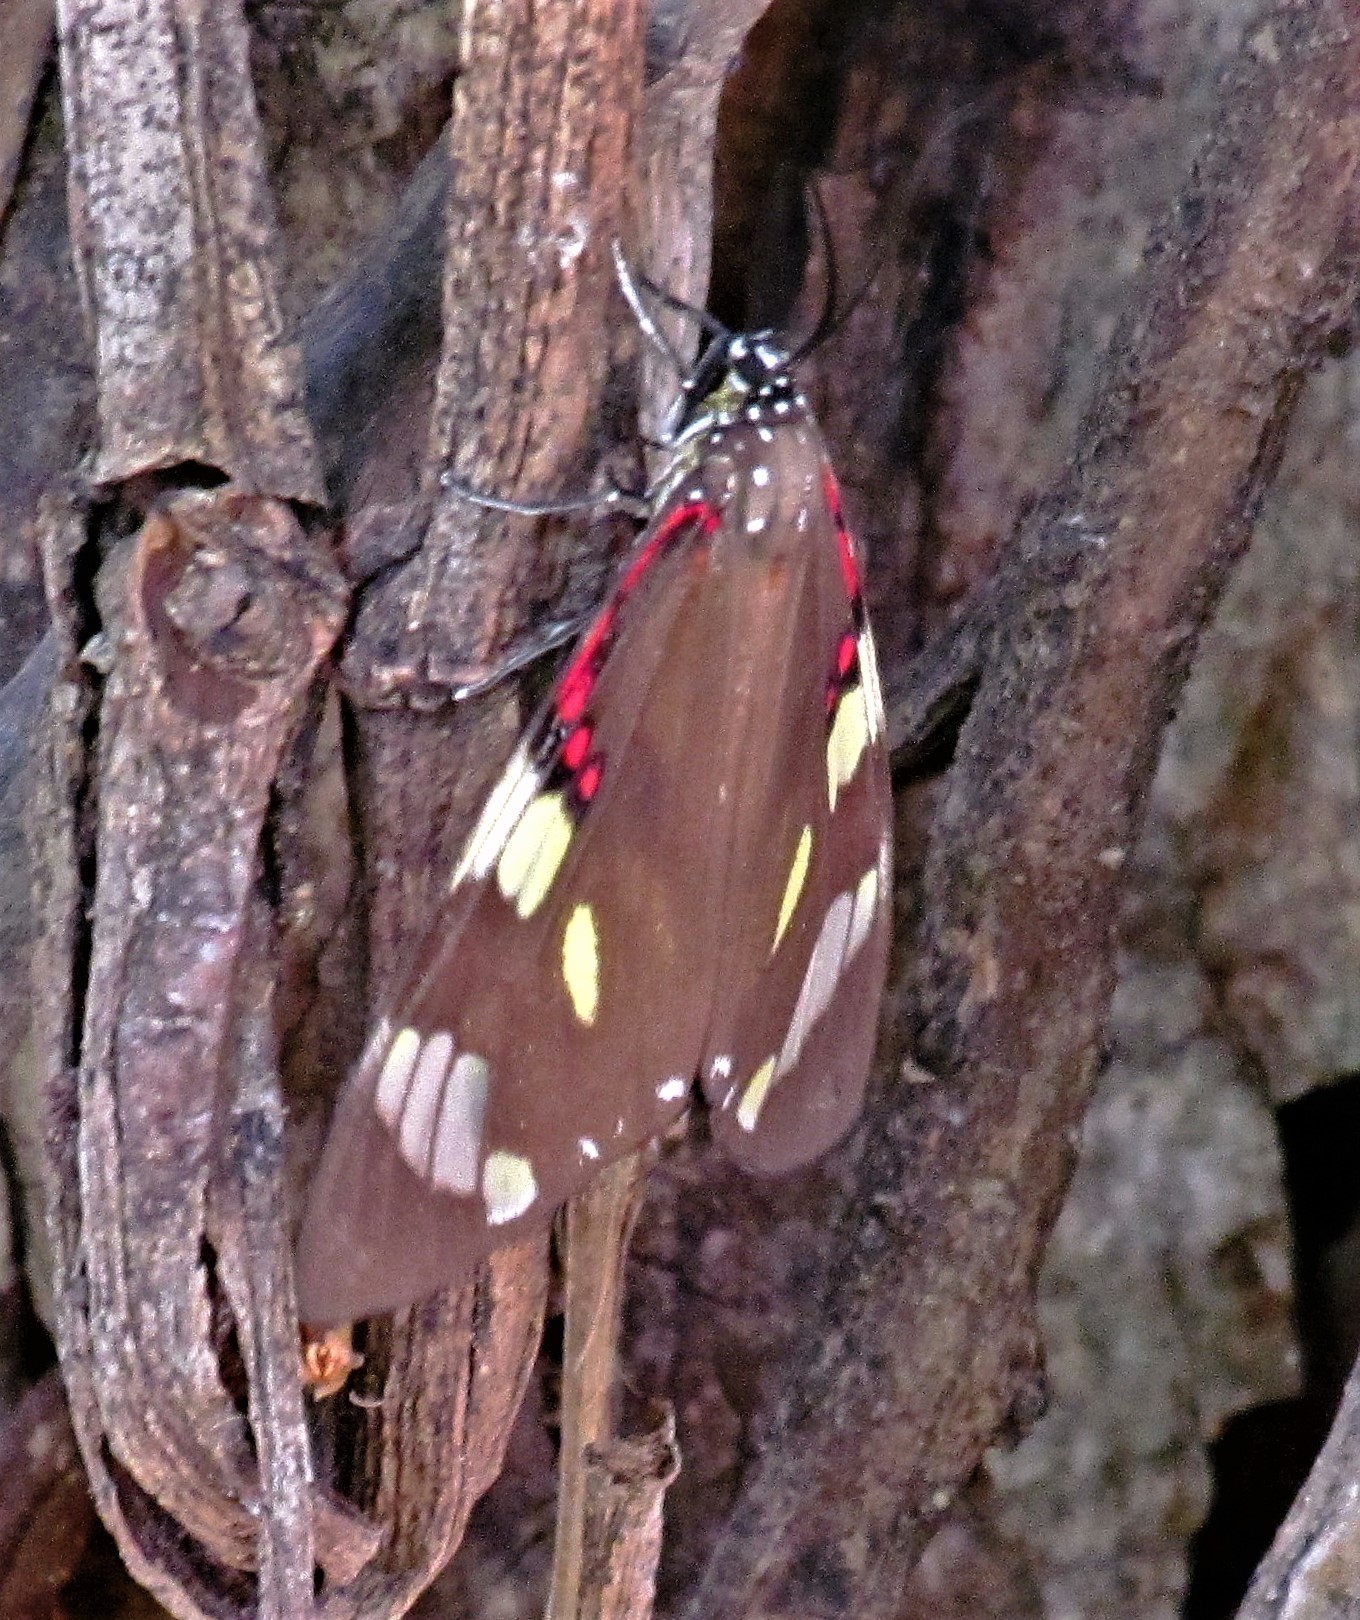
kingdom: Animalia
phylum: Arthropoda
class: Insecta
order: Lepidoptera
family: Erebidae
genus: Phaloe
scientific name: Phaloe cruenta
